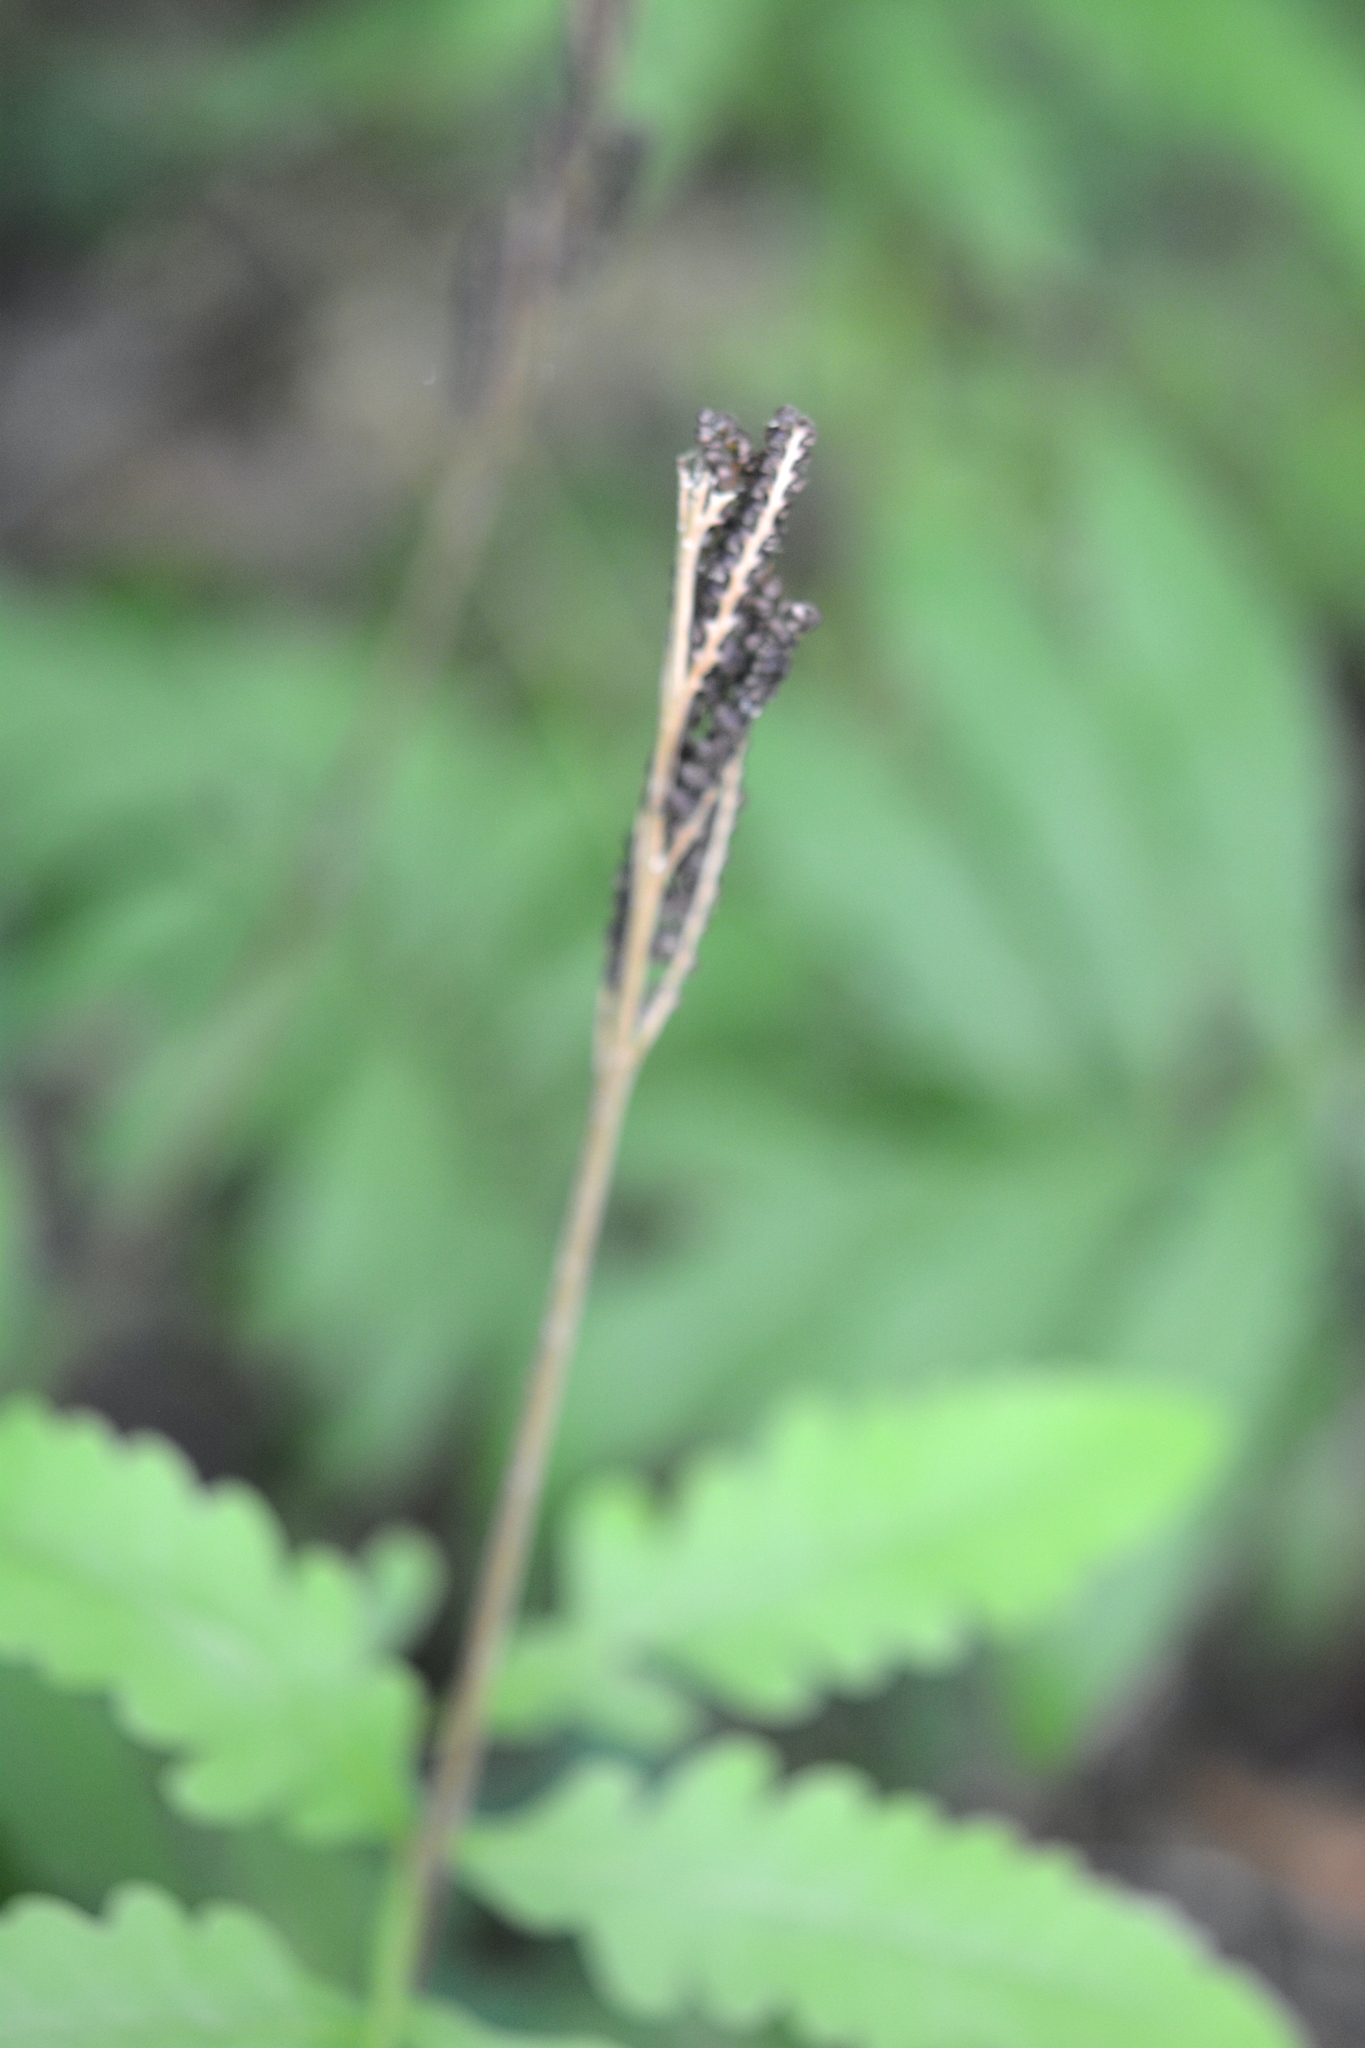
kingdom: Plantae
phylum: Tracheophyta
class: Polypodiopsida
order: Polypodiales
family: Onocleaceae
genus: Onoclea
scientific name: Onoclea sensibilis
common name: Sensitive fern
